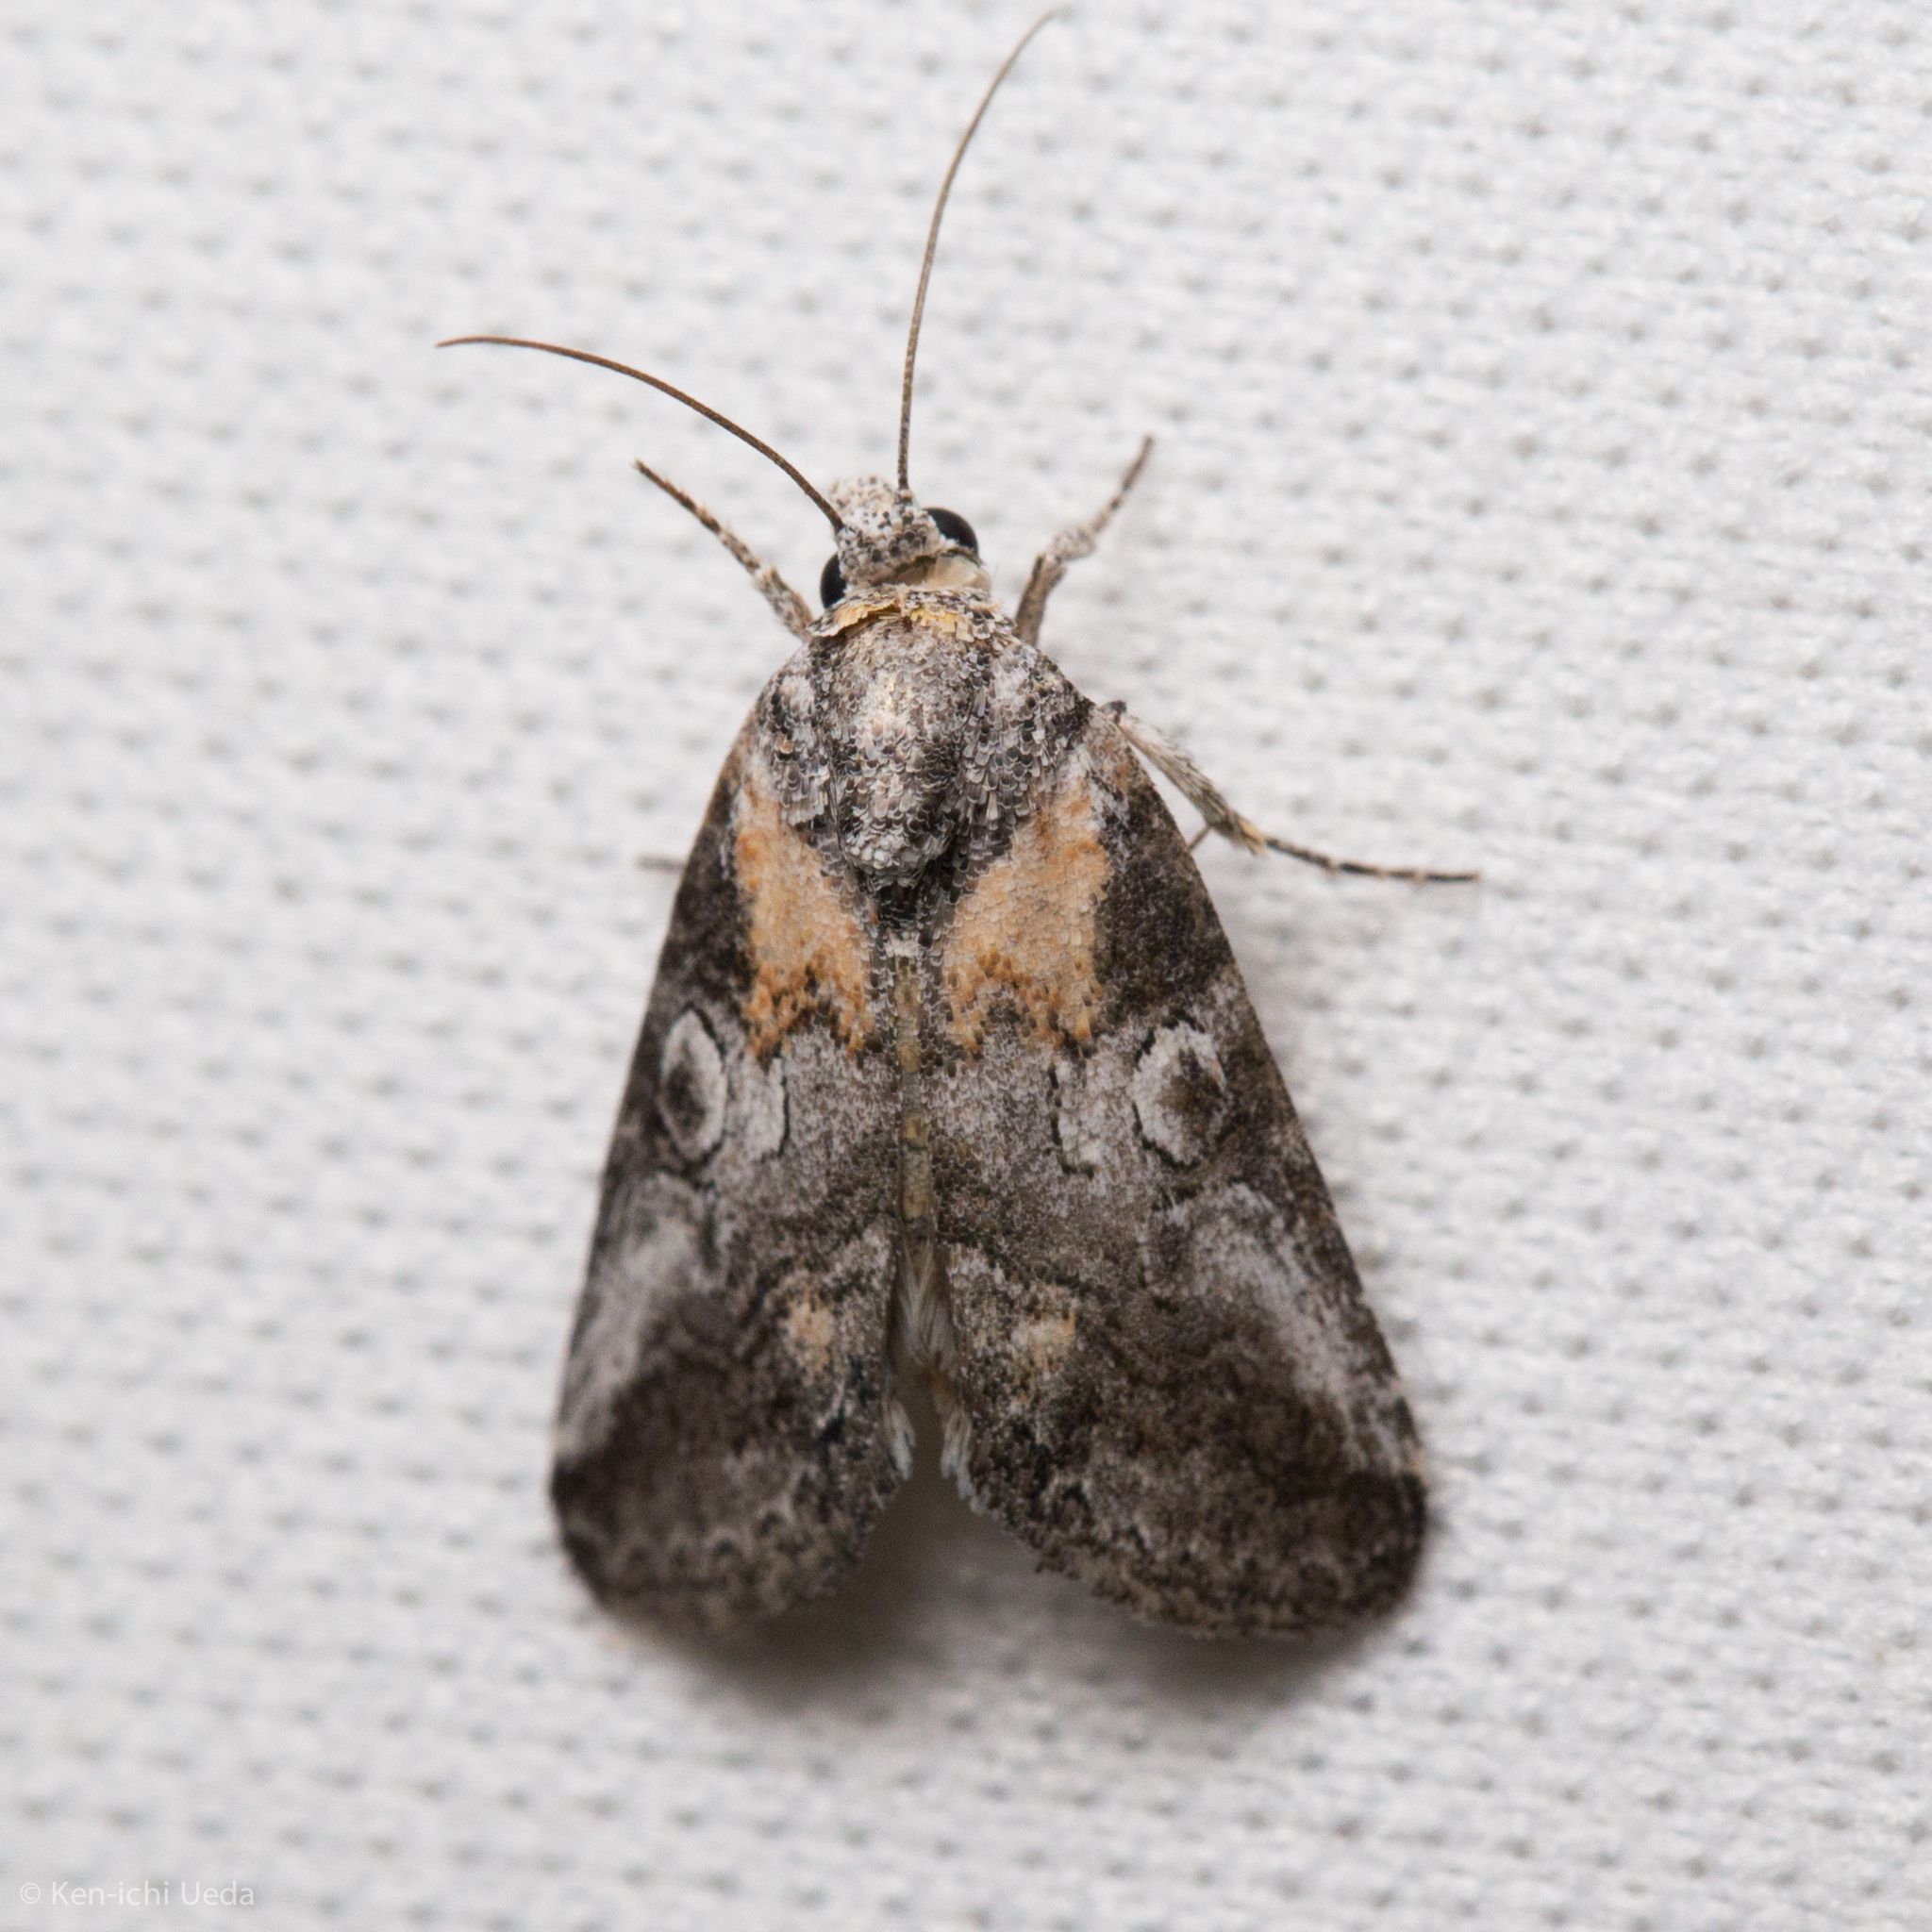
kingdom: Animalia
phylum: Arthropoda
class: Insecta
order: Lepidoptera
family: Noctuidae
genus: Aleptina
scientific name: Aleptina inca
